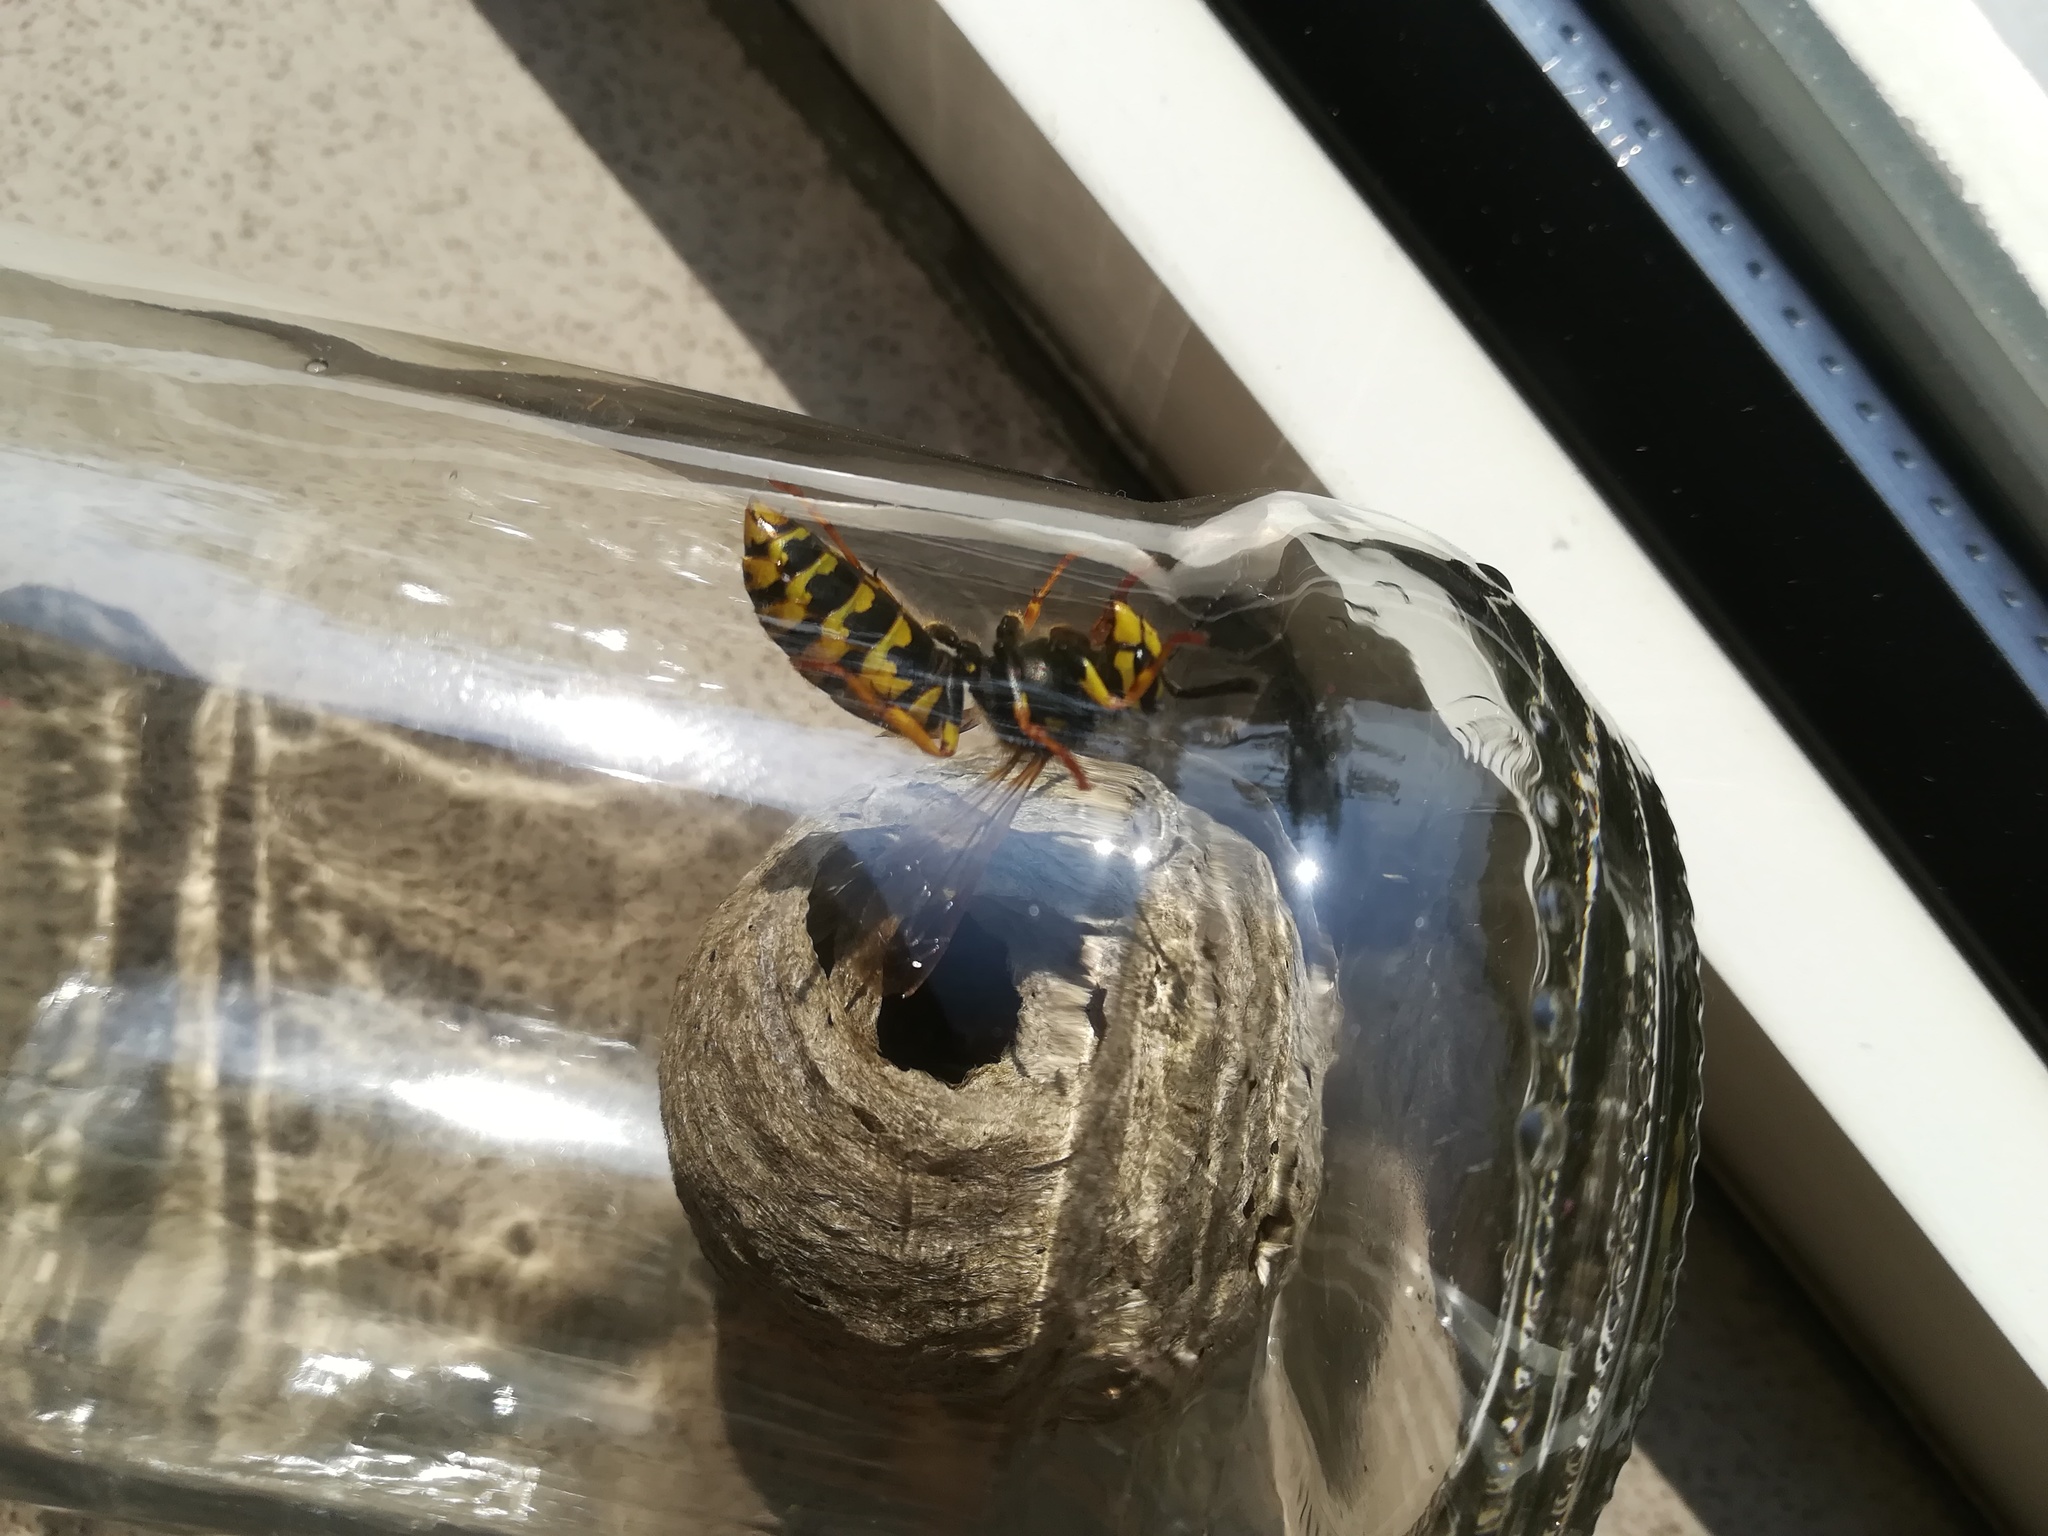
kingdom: Animalia
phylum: Arthropoda
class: Insecta
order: Hymenoptera
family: Vespidae
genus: Vespula
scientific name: Vespula germanica
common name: German wasp
